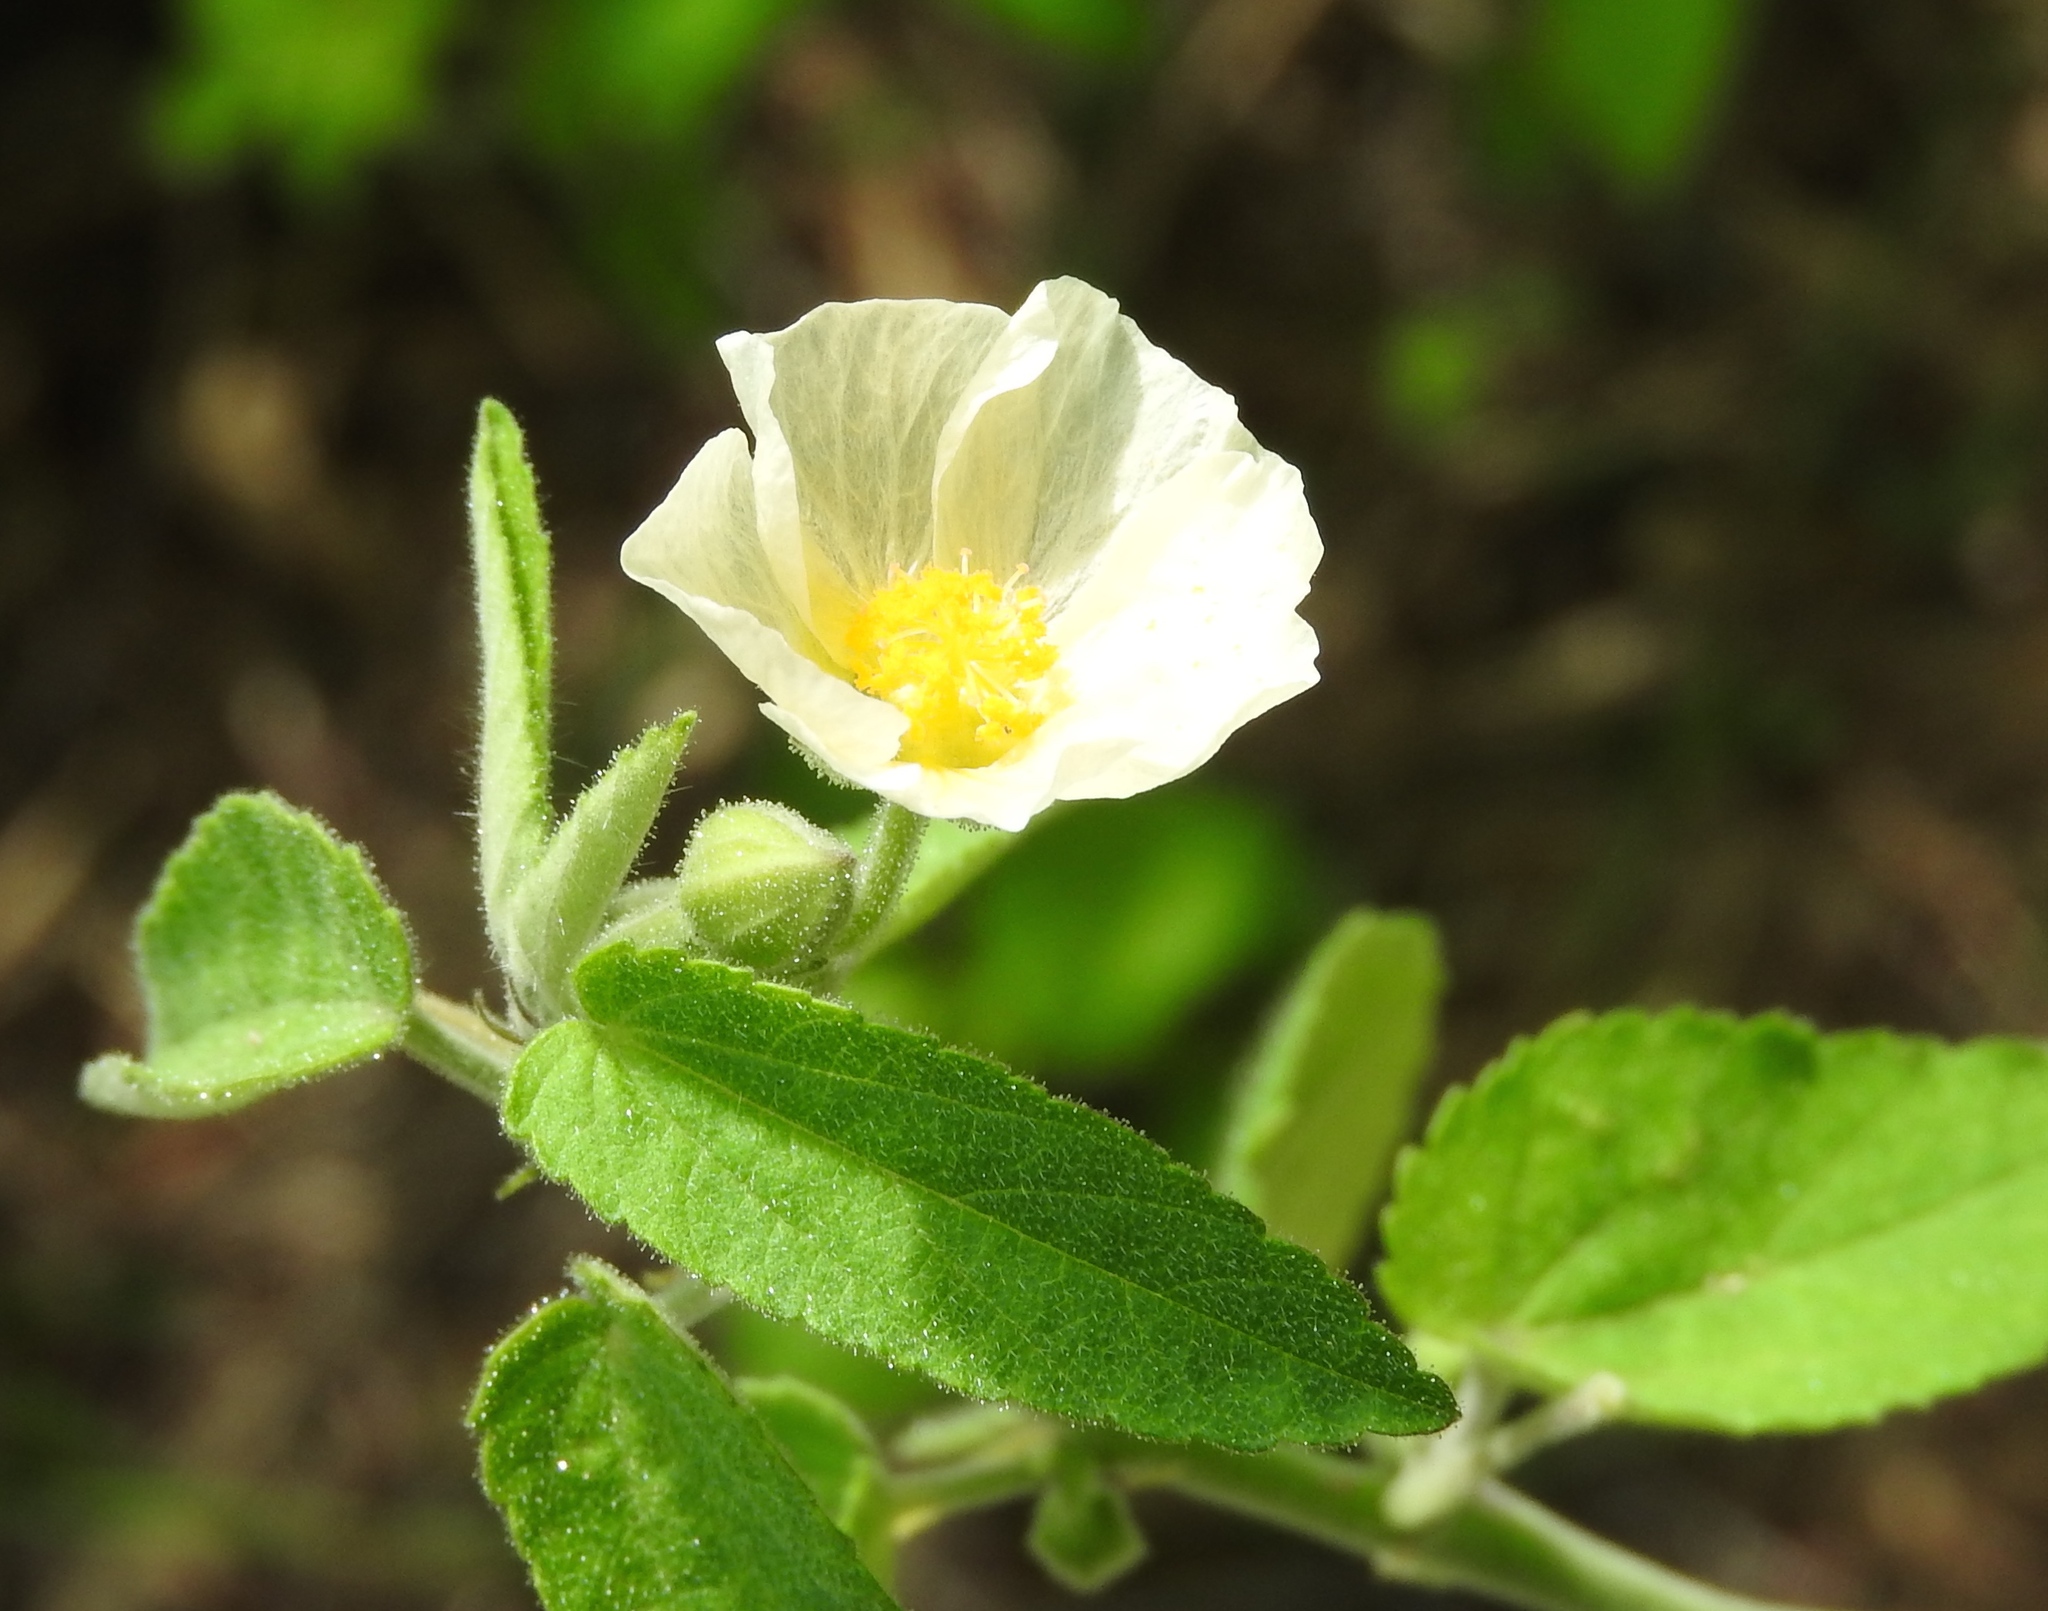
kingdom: Plantae
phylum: Tracheophyta
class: Magnoliopsida
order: Malvales
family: Malvaceae
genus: Herissantia
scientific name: Herissantia crispa
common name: Bladdermallow
